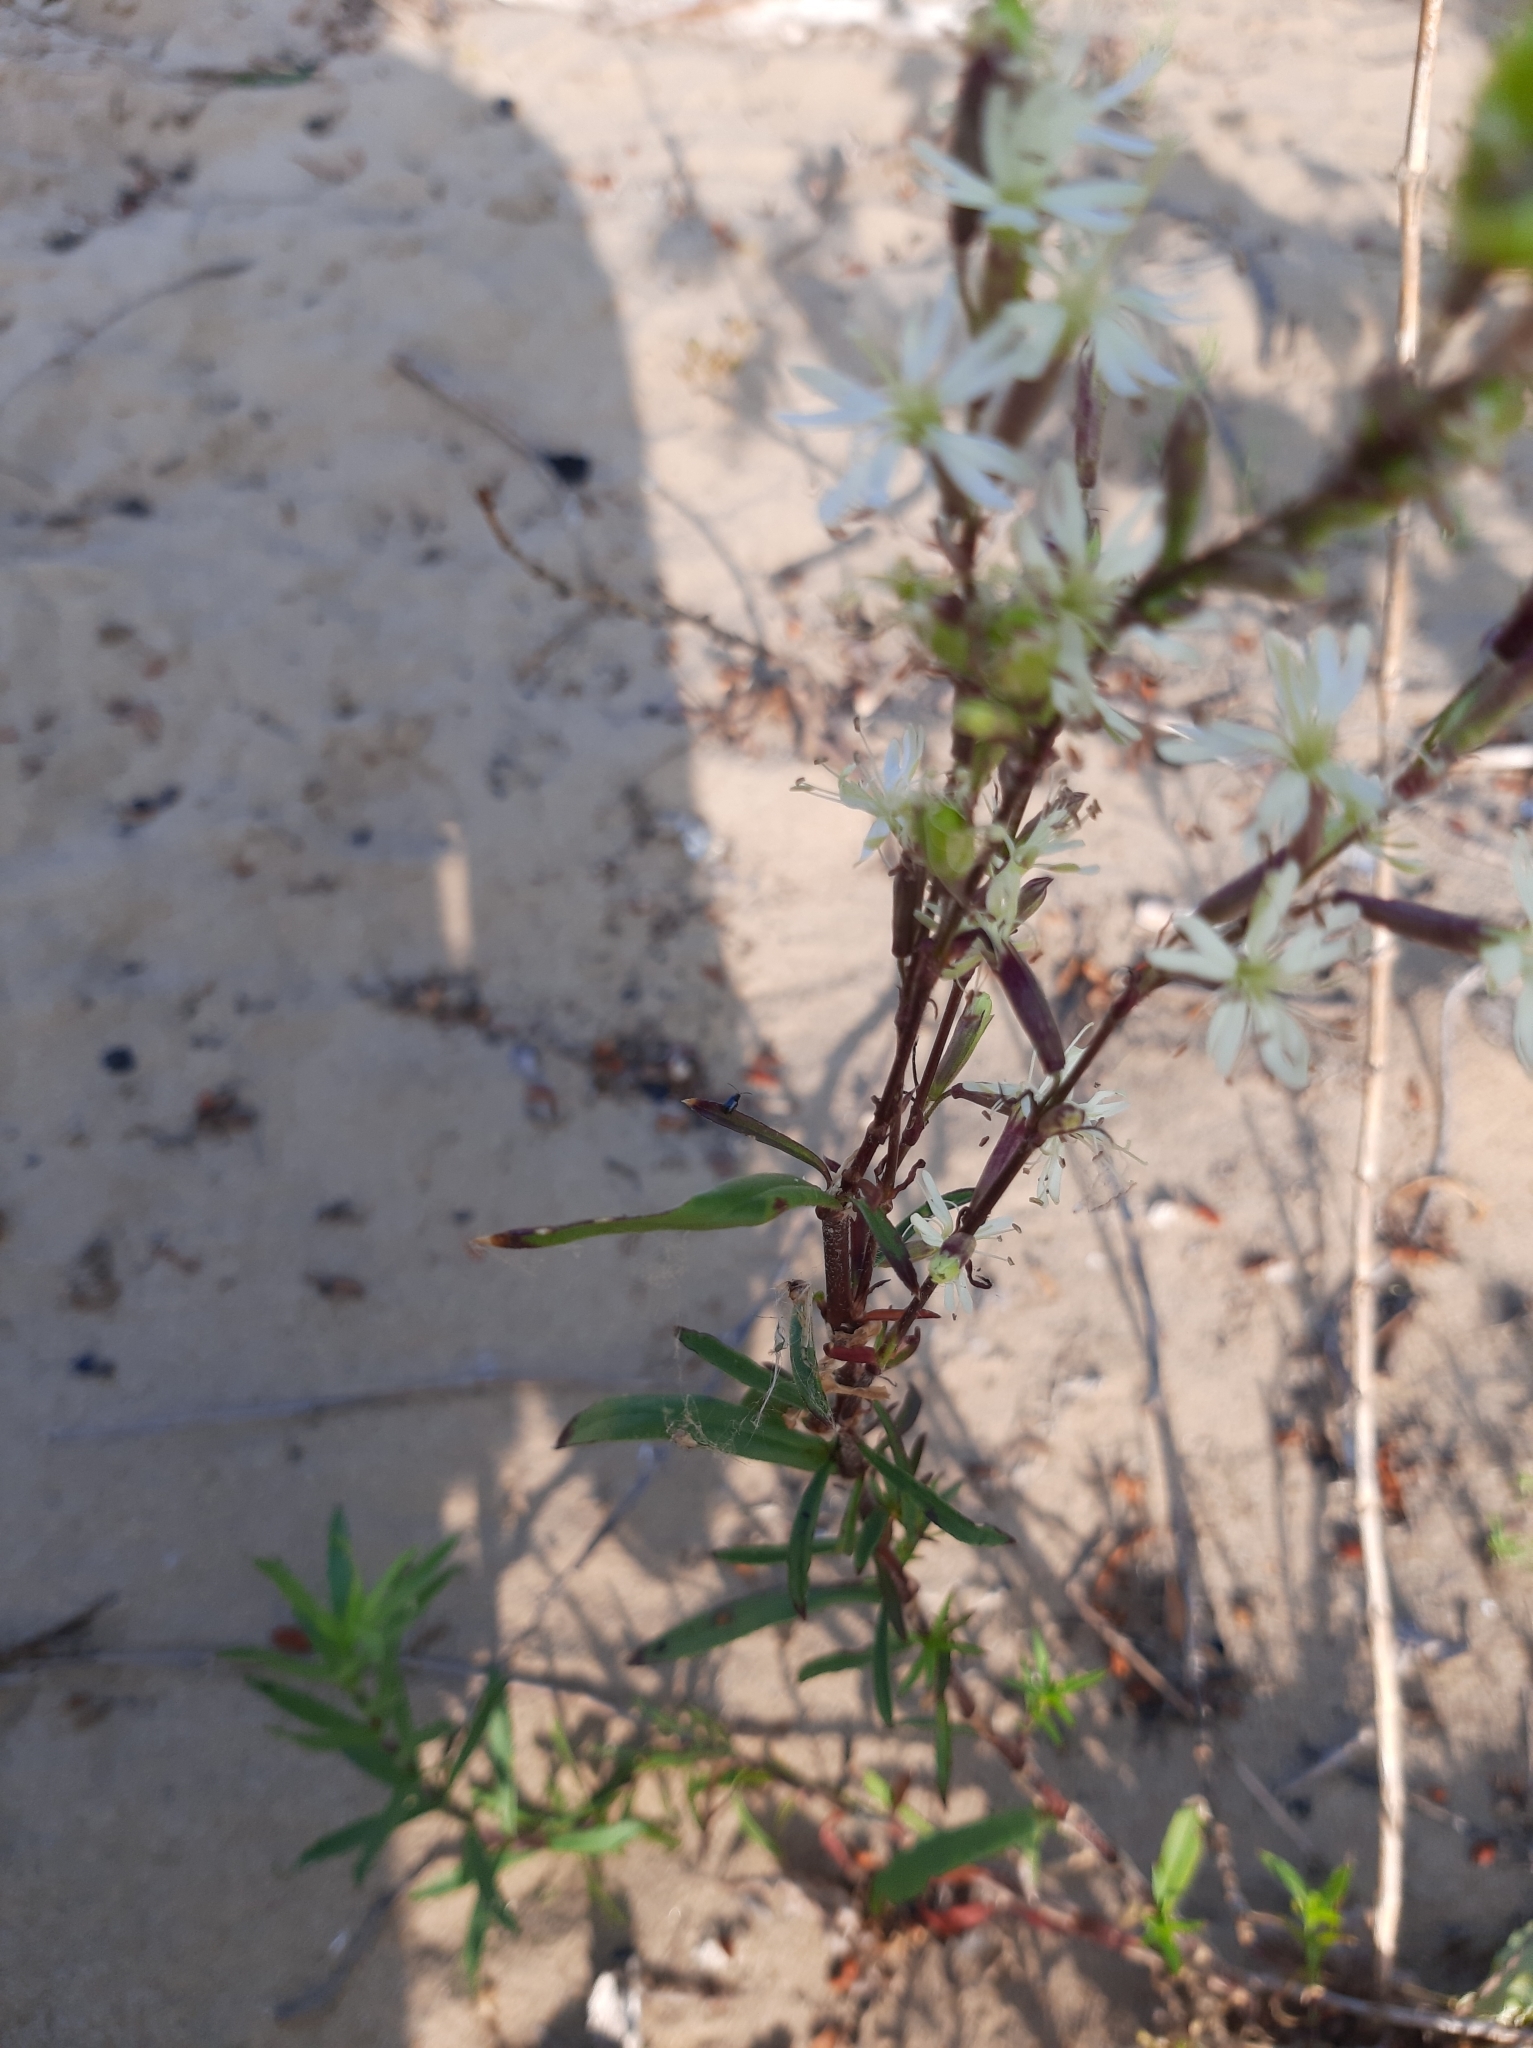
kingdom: Plantae
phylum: Tracheophyta
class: Magnoliopsida
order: Caryophyllales
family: Caryophyllaceae
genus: Silene
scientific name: Silene tatarica
